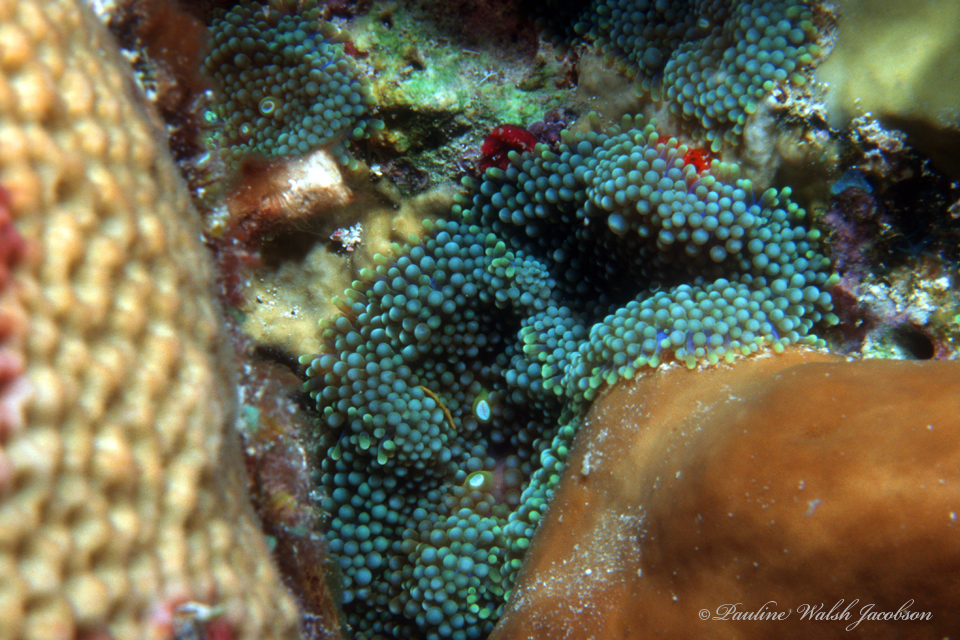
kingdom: Animalia
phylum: Cnidaria
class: Anthozoa
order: Corallimorpharia
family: Ricordeidae
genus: Ricordea
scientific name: Ricordea florida
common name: False coral
